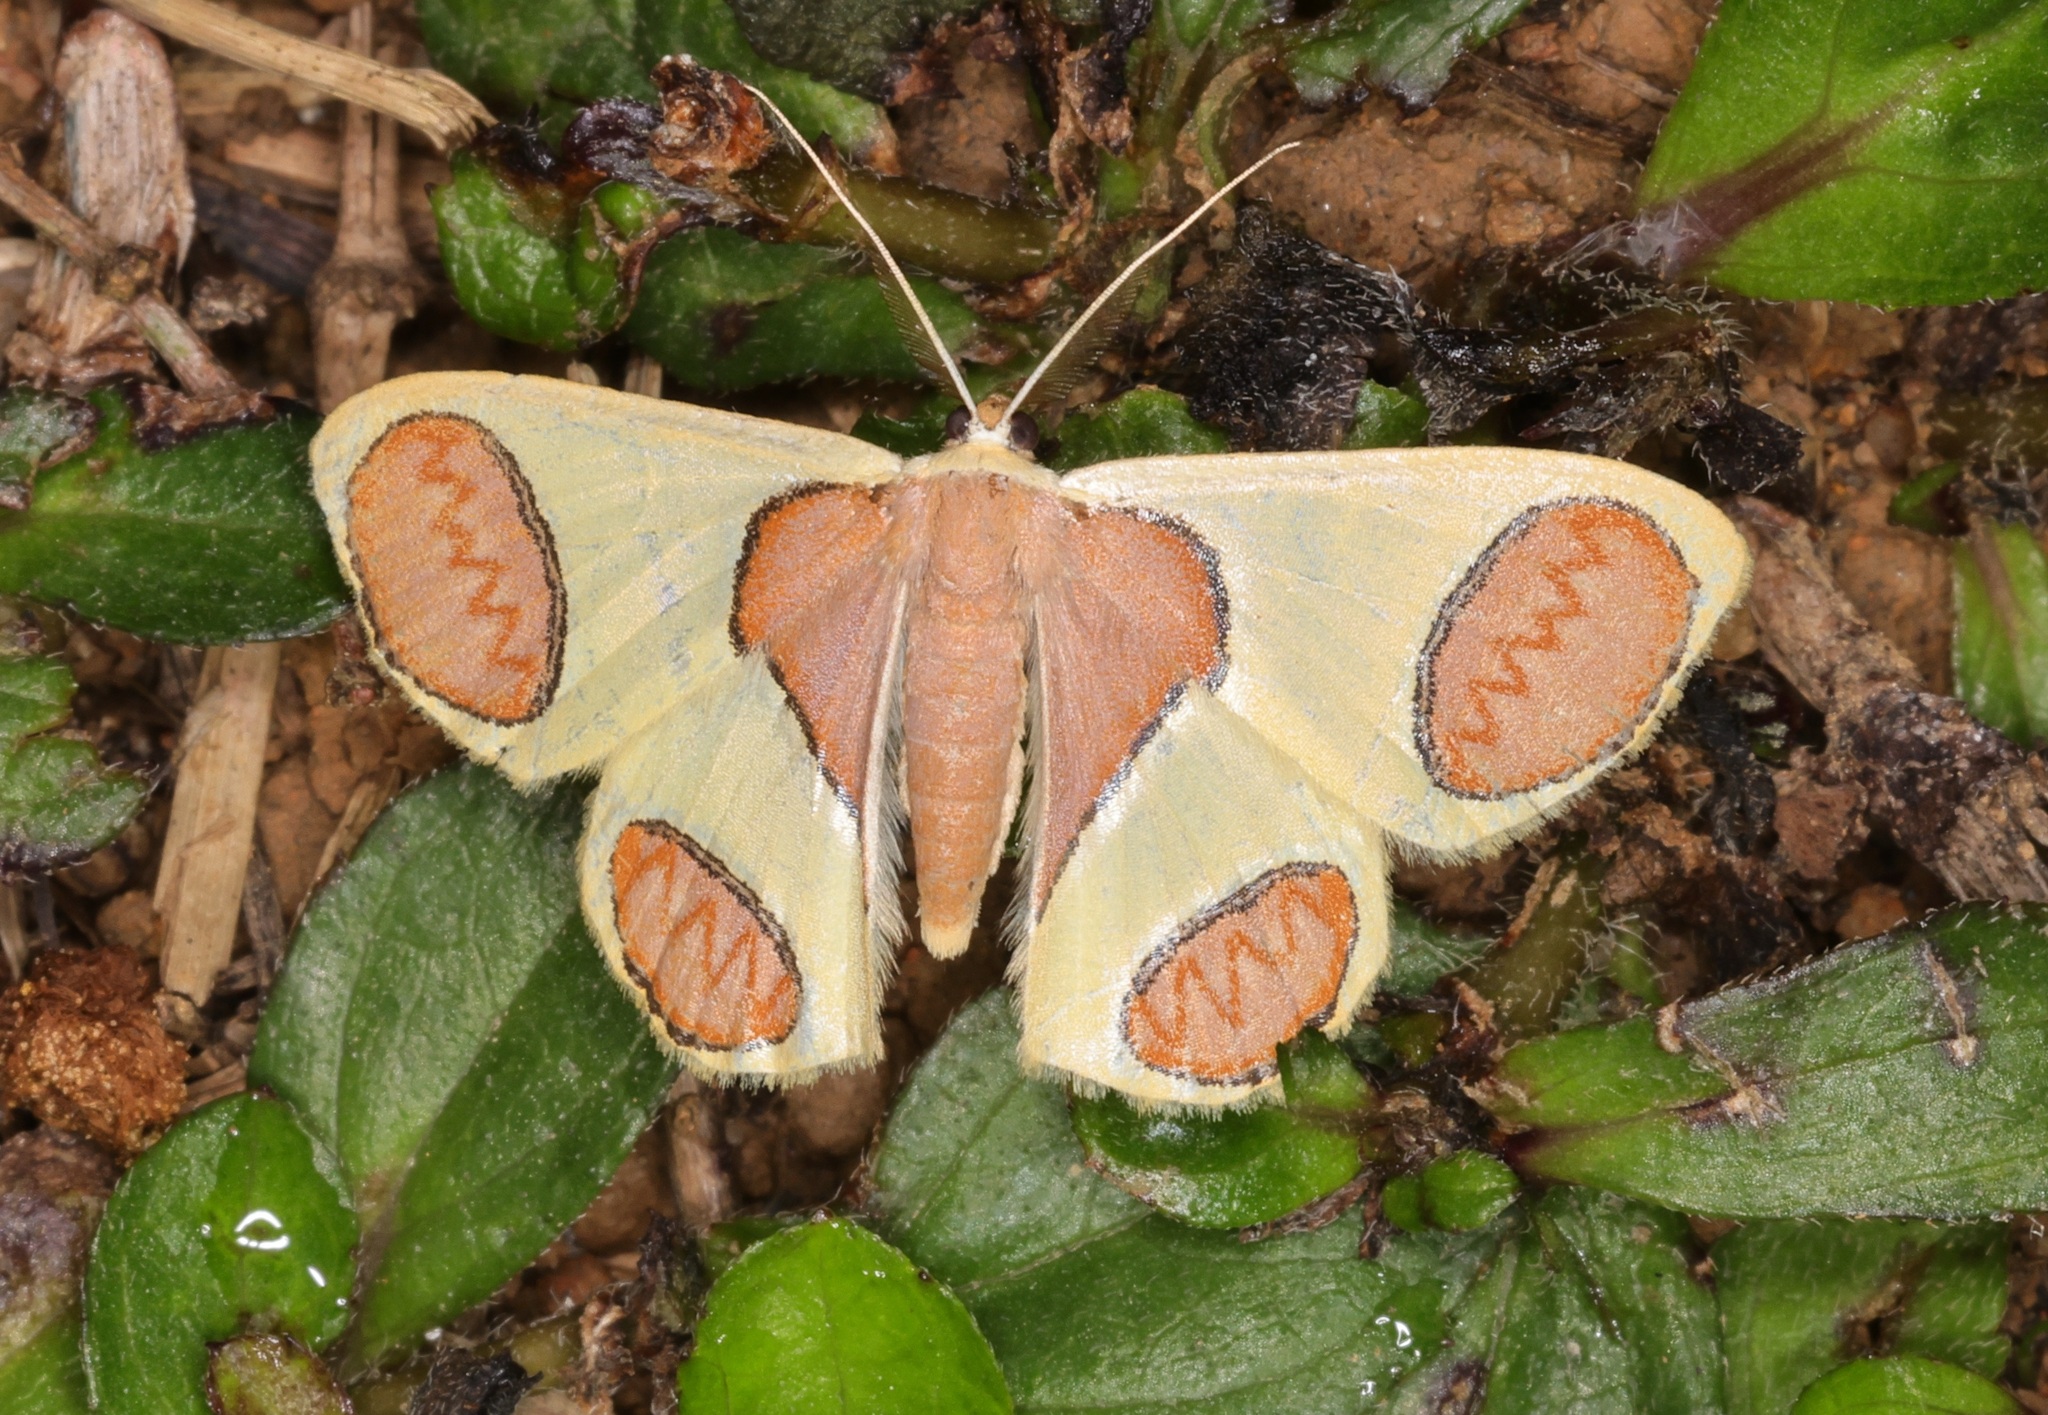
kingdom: Animalia
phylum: Arthropoda
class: Insecta
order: Lepidoptera
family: Geometridae
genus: Plutodes
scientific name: Plutodes flavescens
